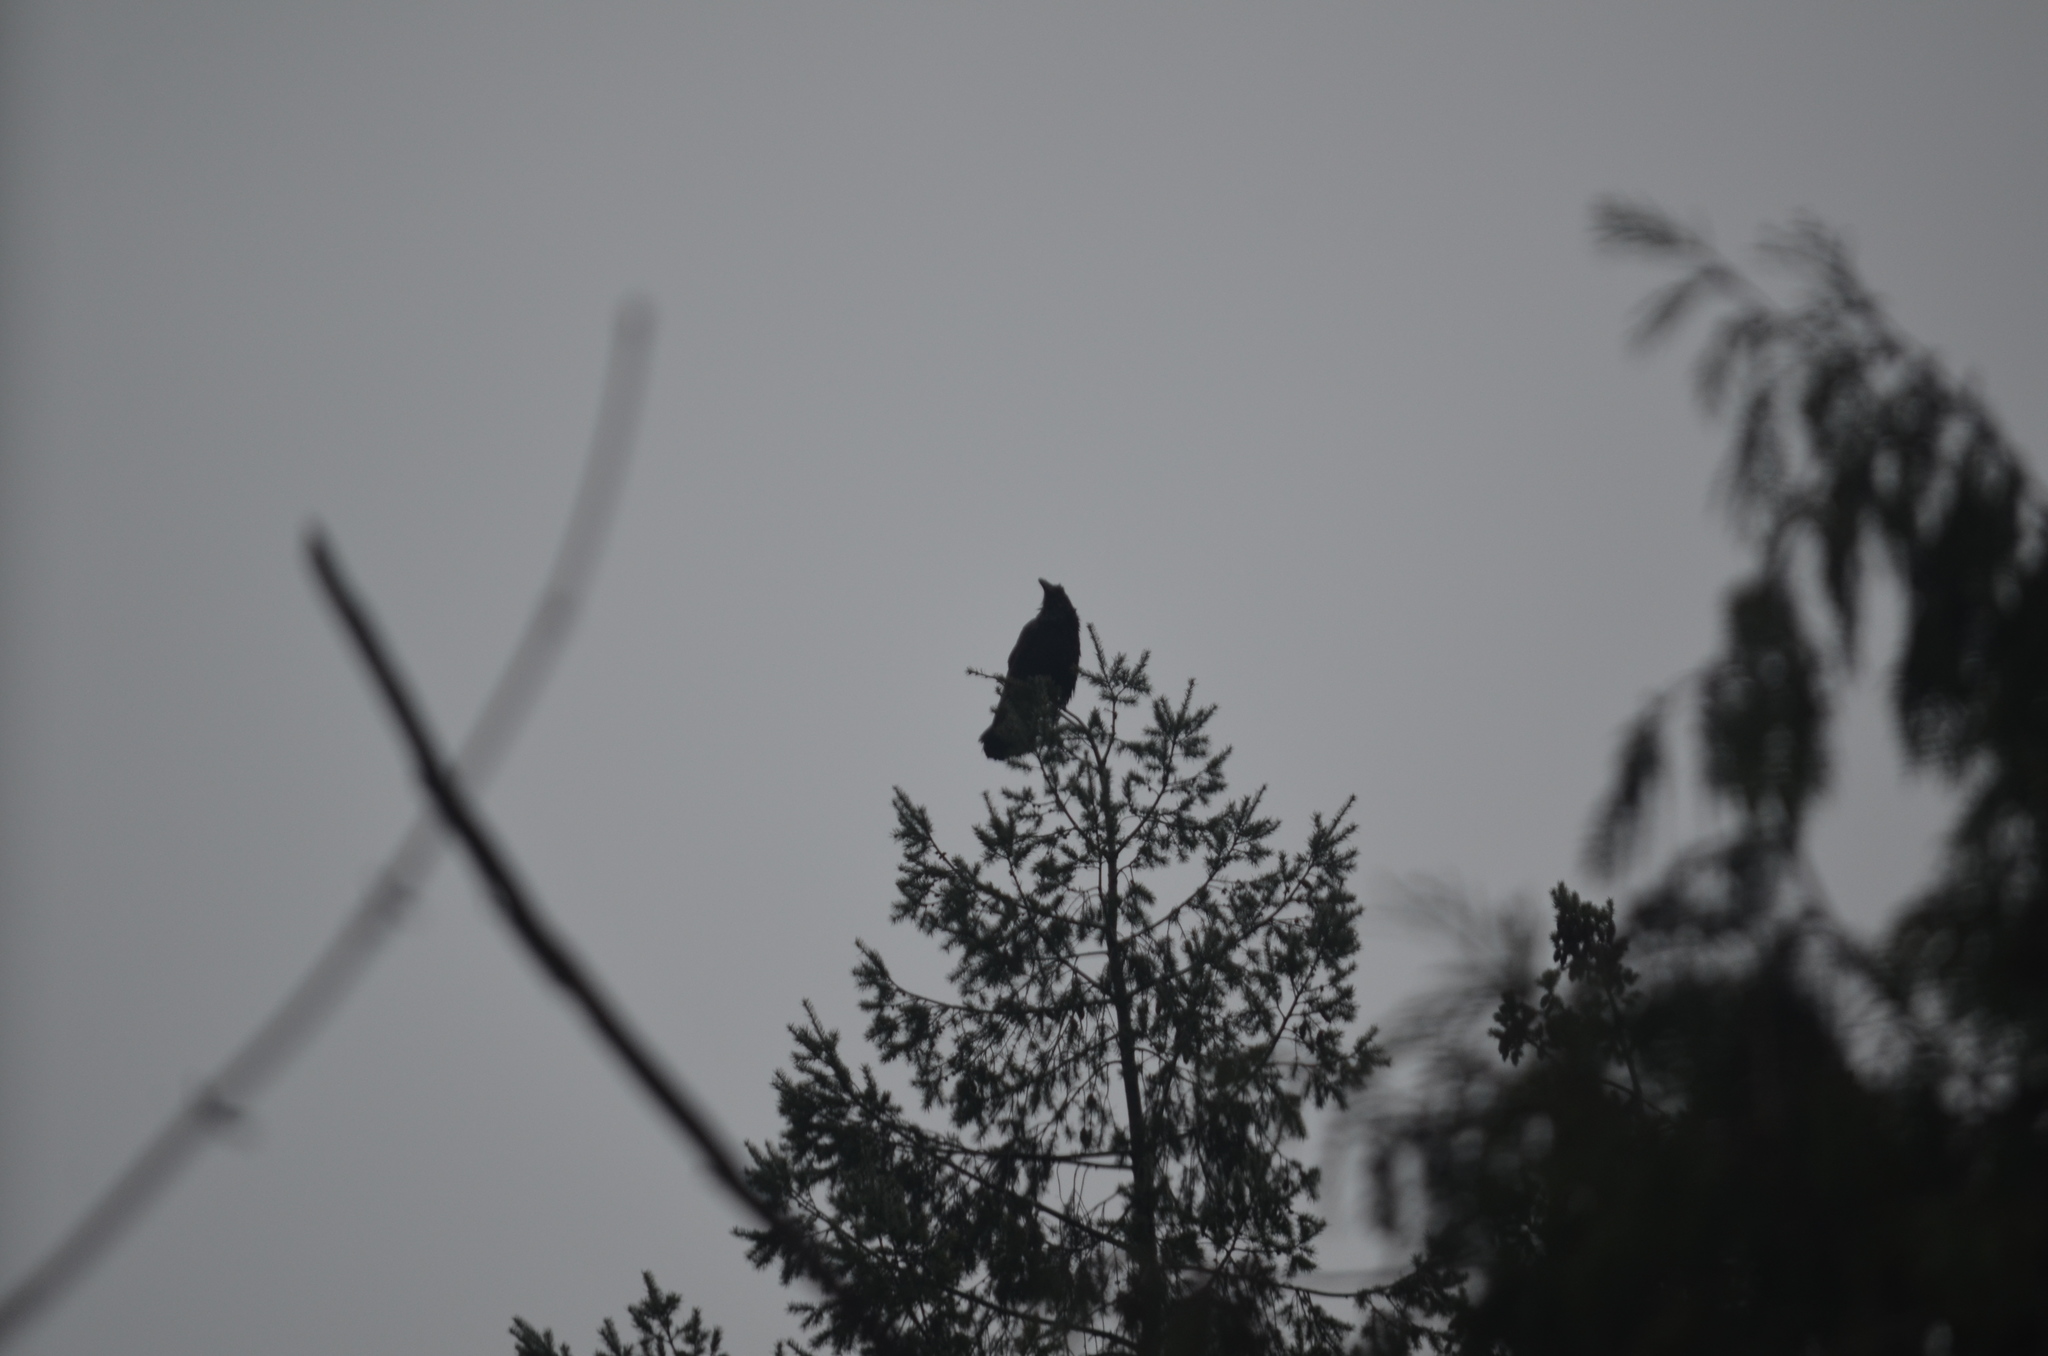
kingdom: Animalia
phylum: Chordata
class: Aves
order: Passeriformes
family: Corvidae
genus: Corvus
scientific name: Corvus corax
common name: Common raven
